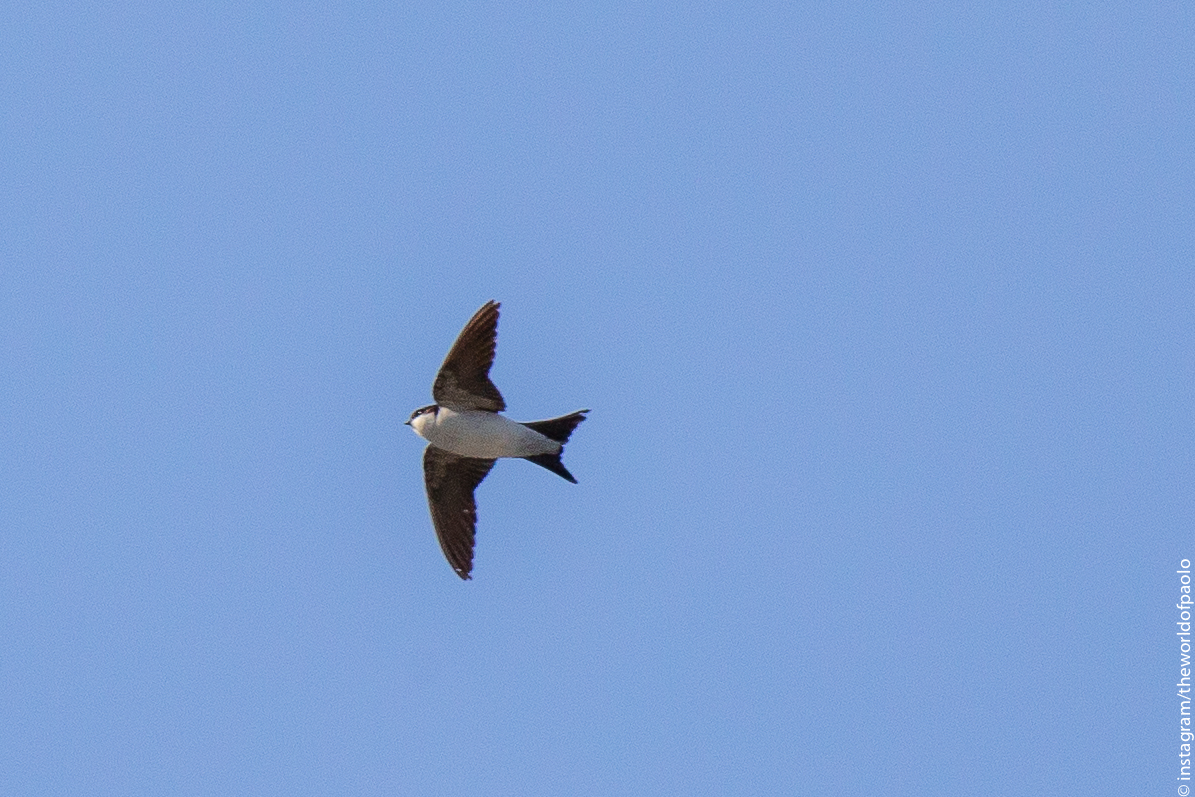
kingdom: Animalia
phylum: Chordata
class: Aves
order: Passeriformes
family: Hirundinidae
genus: Delichon
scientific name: Delichon urbicum
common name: Common house martin
